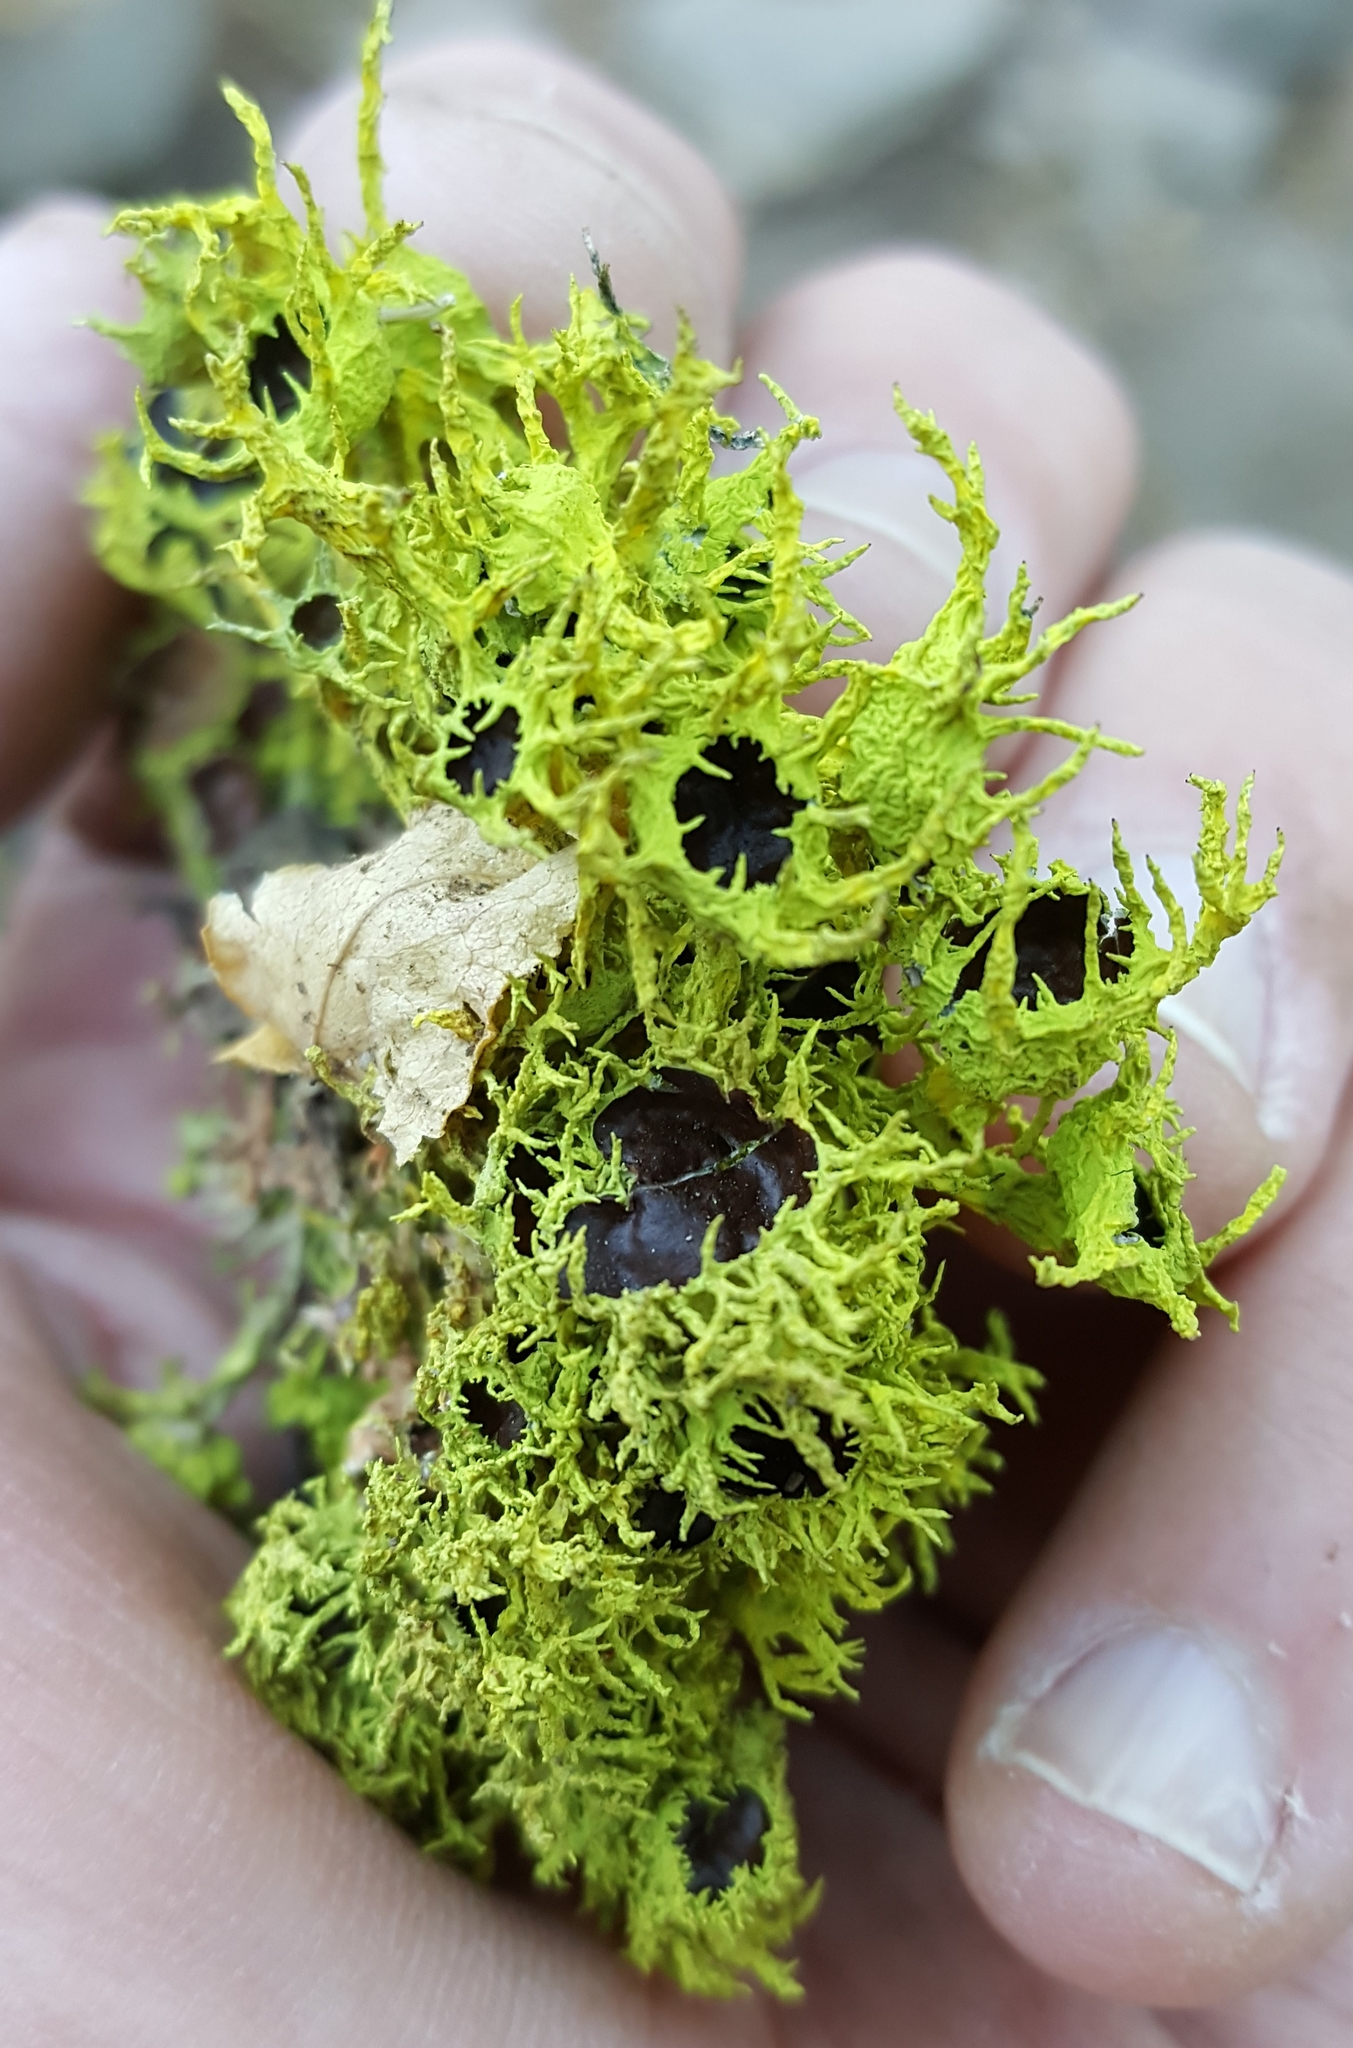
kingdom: Fungi
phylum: Ascomycota
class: Lecanoromycetes
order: Lecanorales
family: Parmeliaceae
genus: Letharia
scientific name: Letharia
